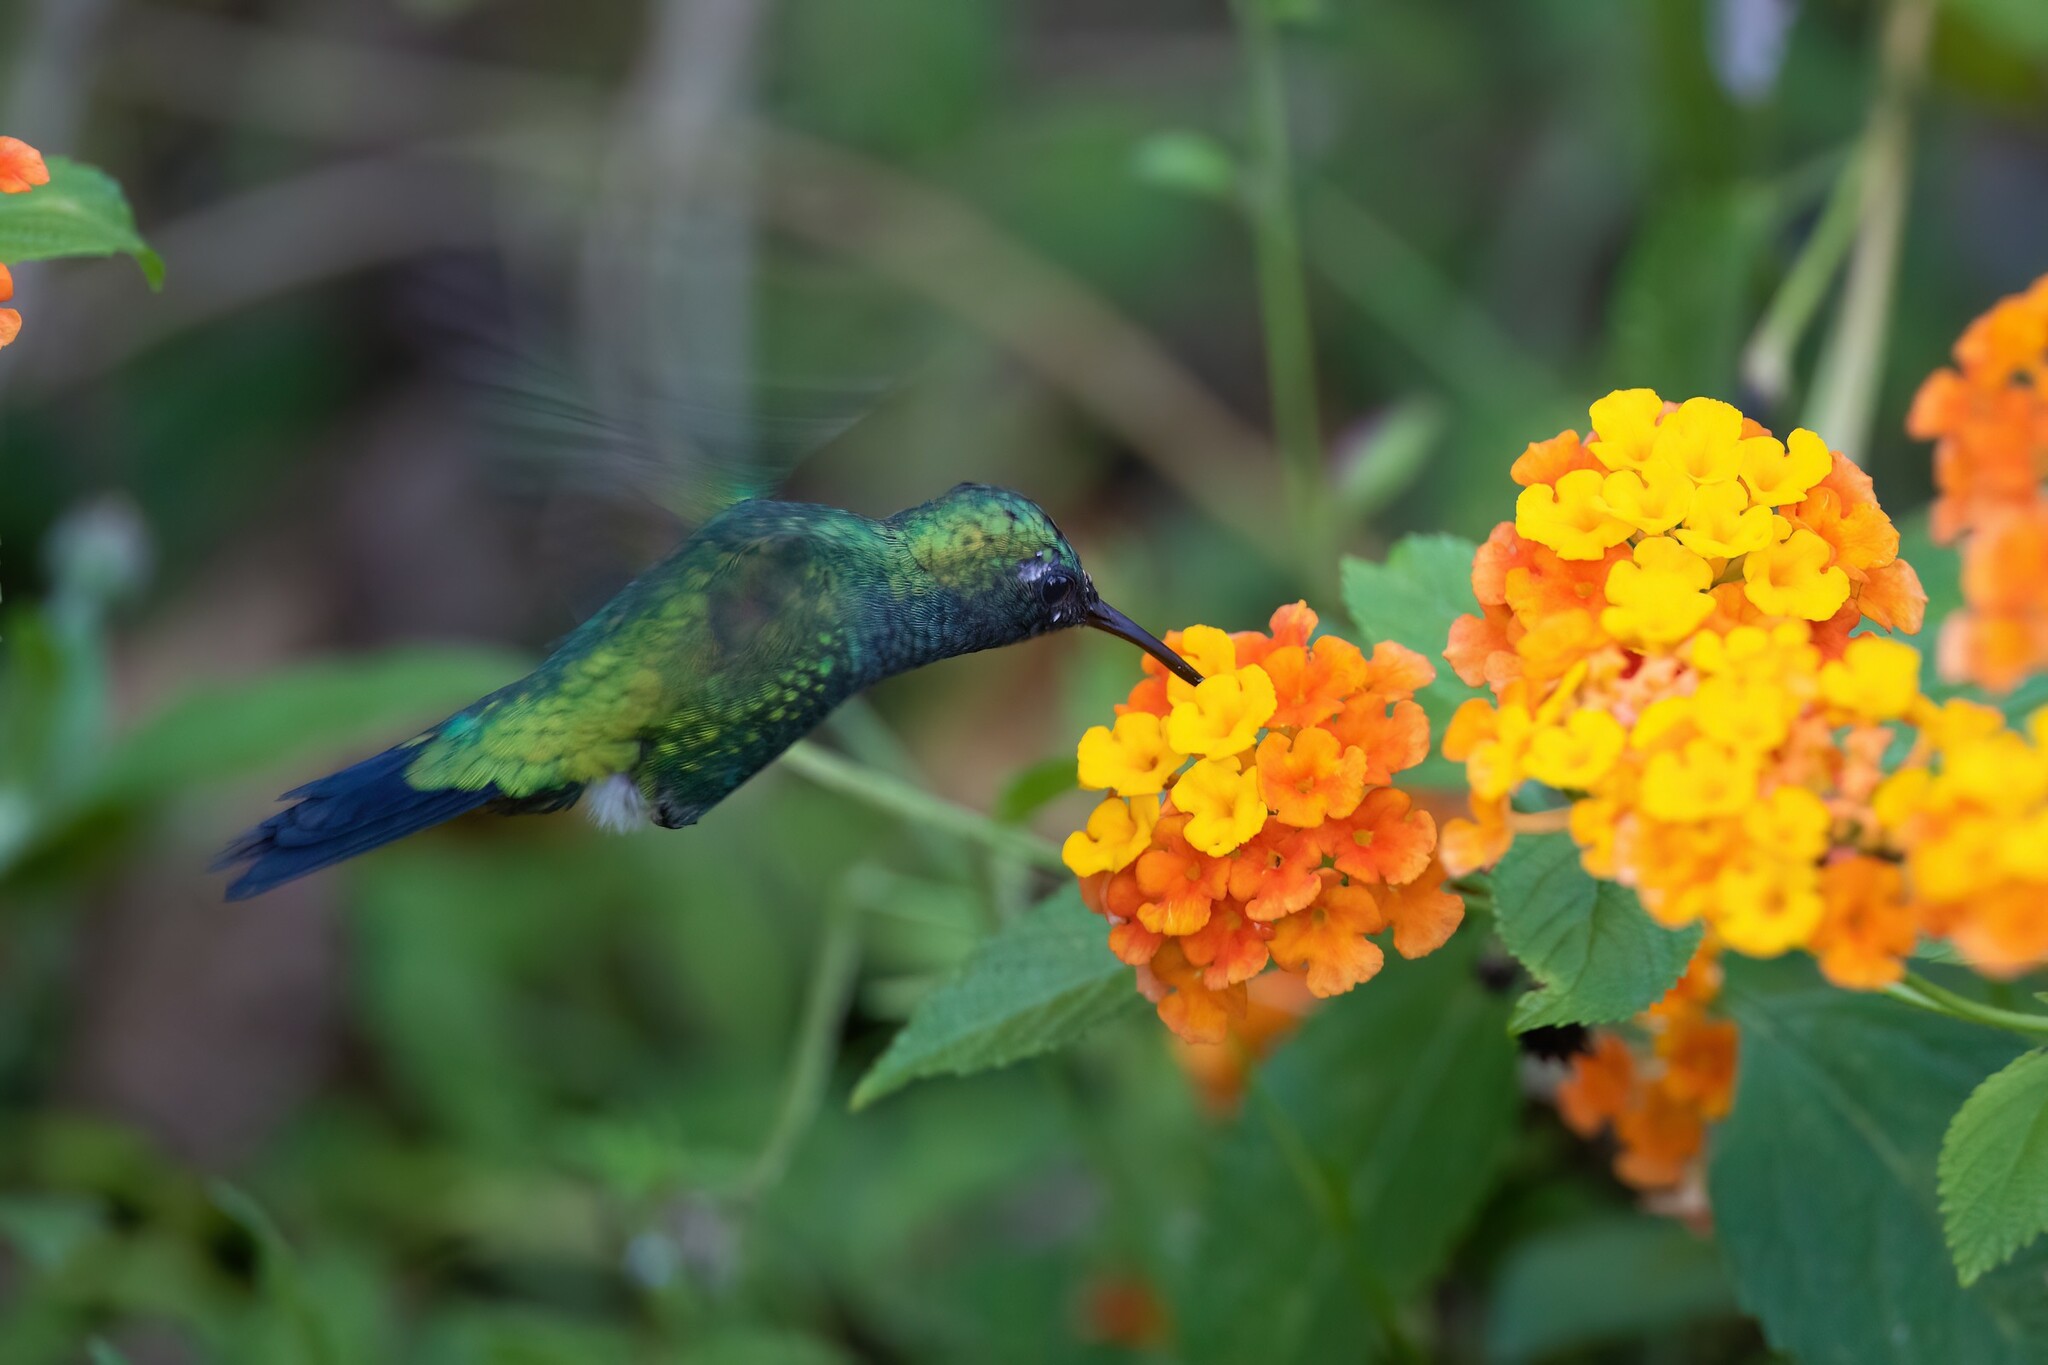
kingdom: Animalia
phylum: Chordata
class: Aves
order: Apodiformes
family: Trochilidae
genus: Chlorostilbon
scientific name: Chlorostilbon assimilis
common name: Garden emerald
